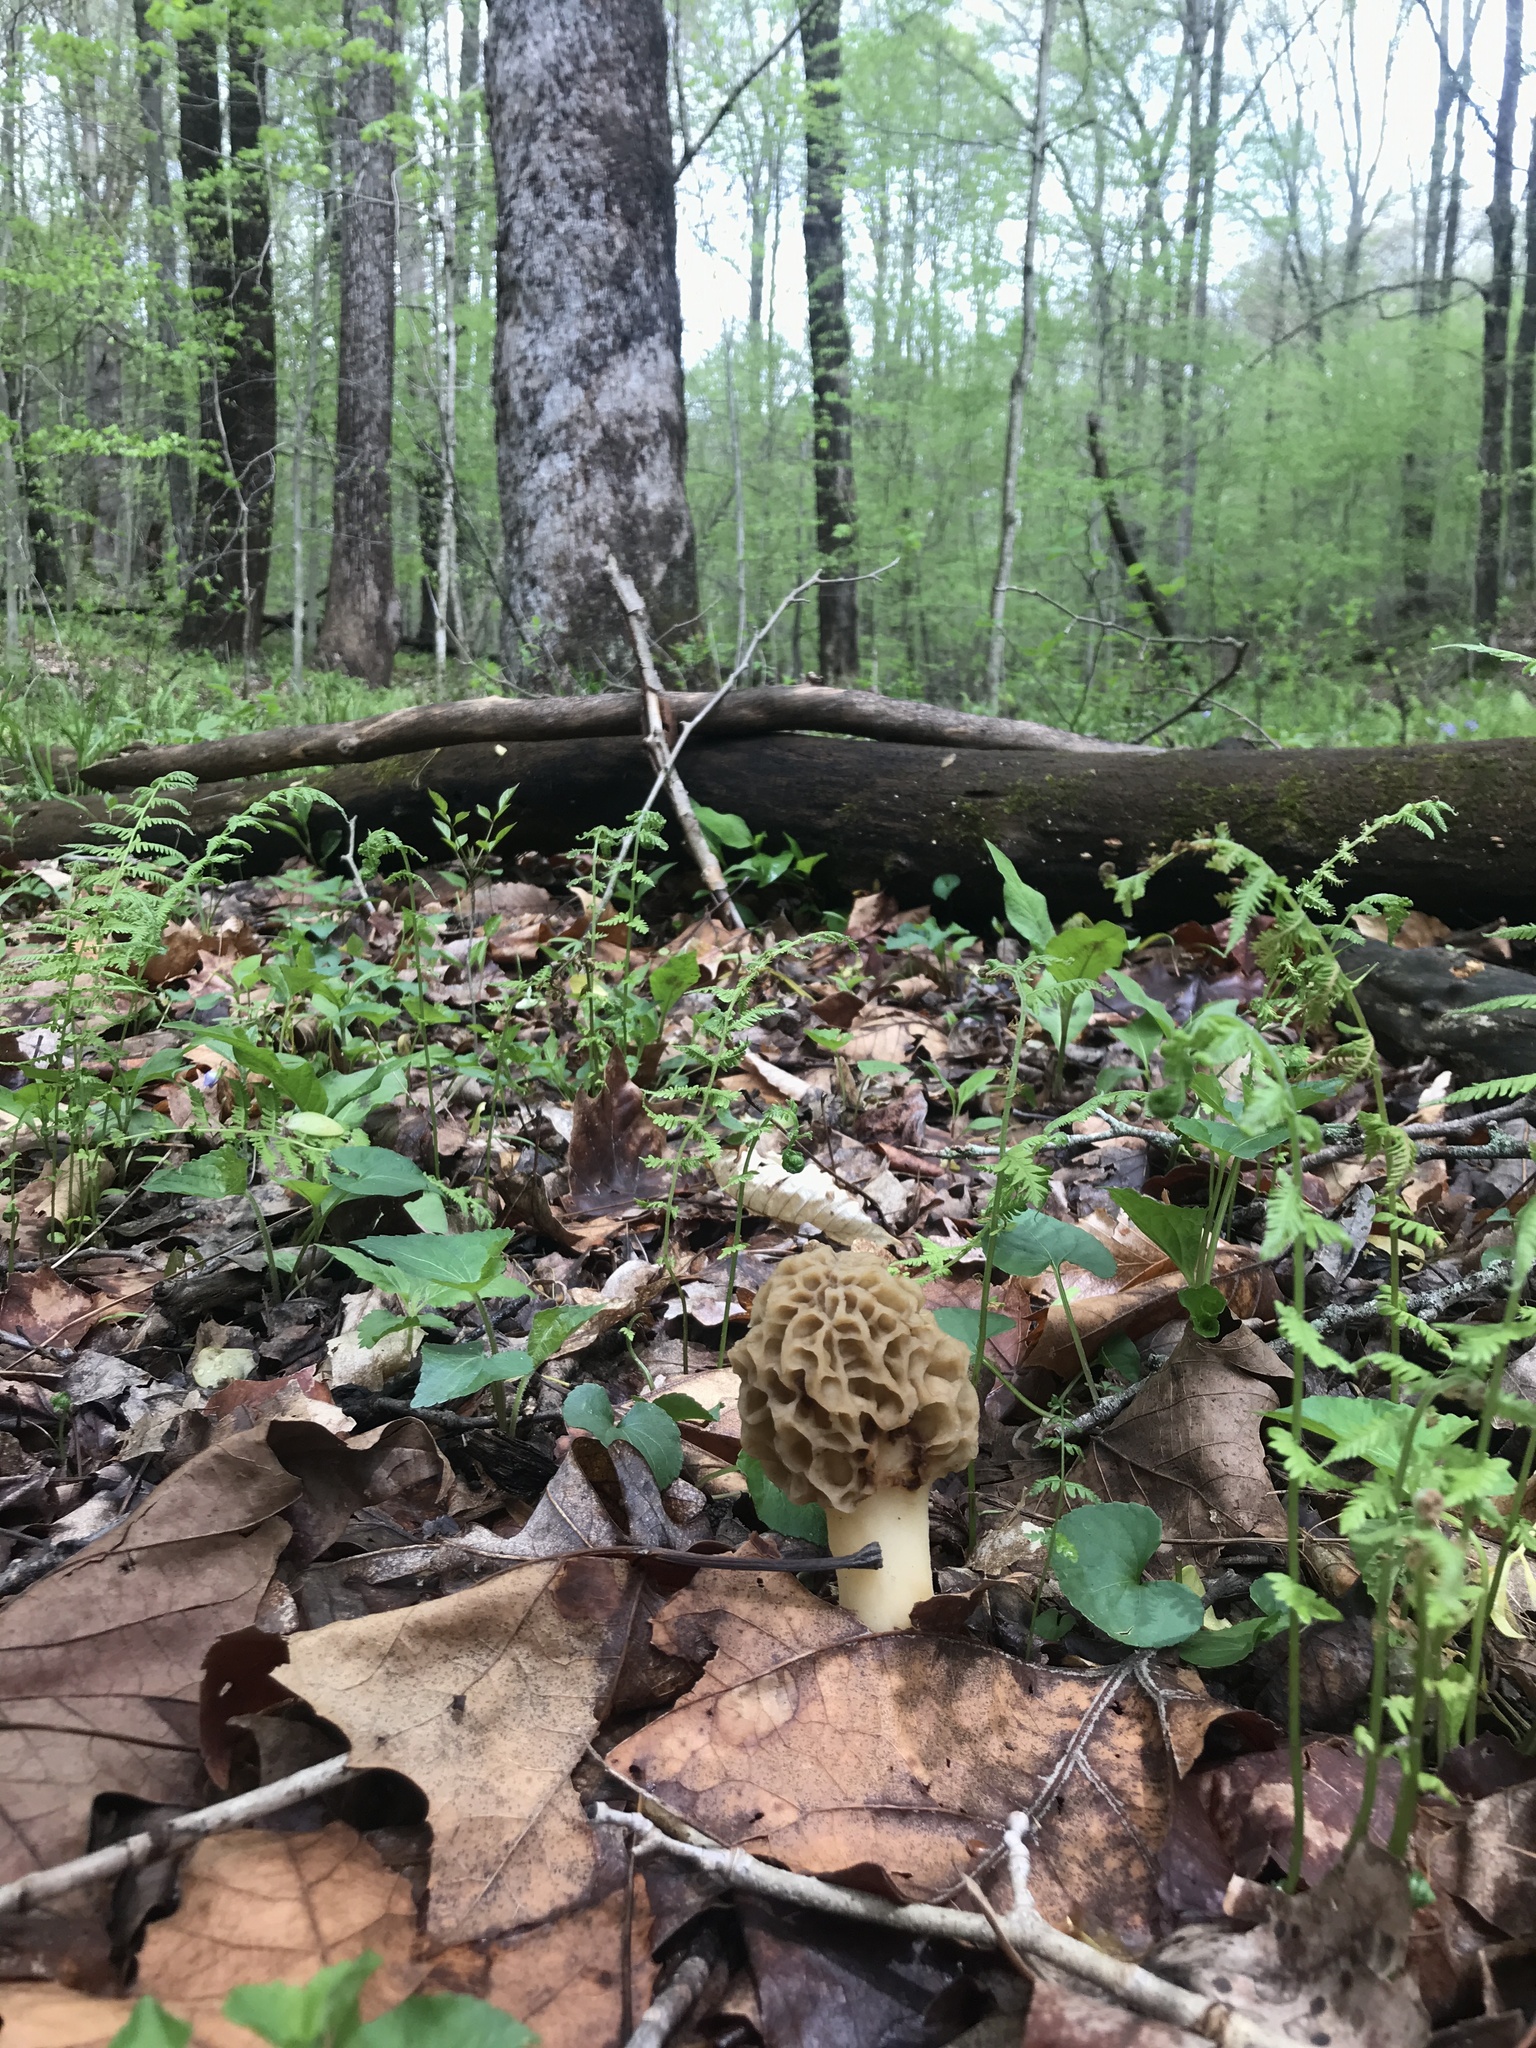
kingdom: Fungi
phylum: Ascomycota
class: Pezizomycetes
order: Pezizales
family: Morchellaceae
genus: Morchella
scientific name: Morchella americana
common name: White morel
